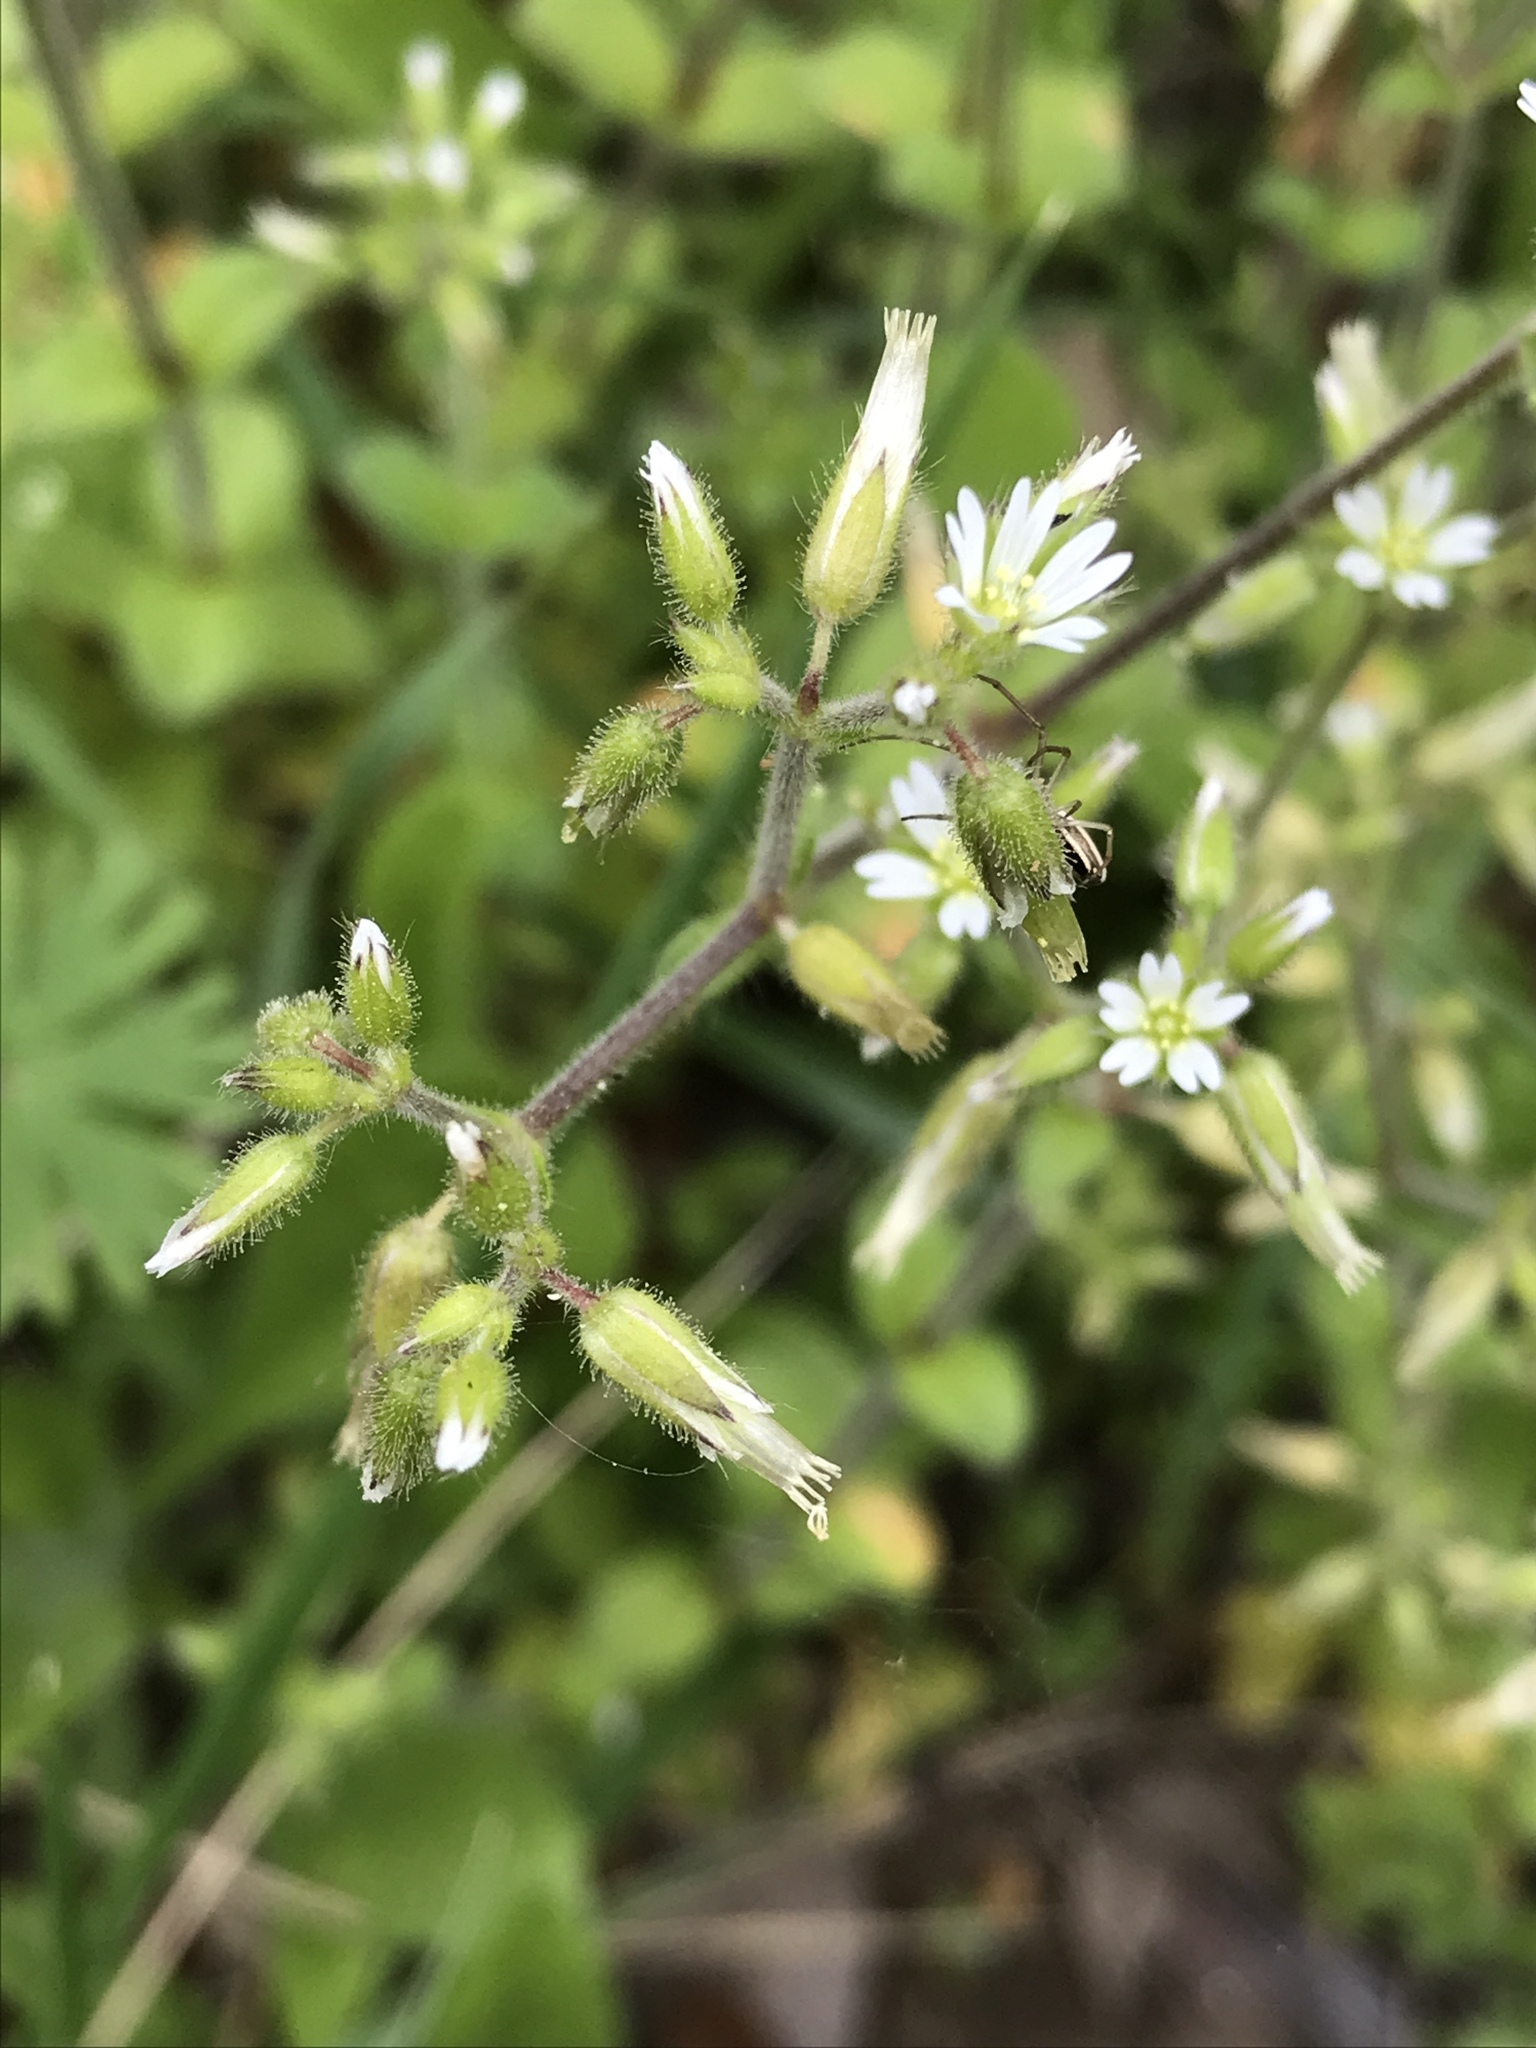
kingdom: Plantae
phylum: Tracheophyta
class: Magnoliopsida
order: Caryophyllales
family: Caryophyllaceae
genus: Cerastium
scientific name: Cerastium glomeratum
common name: Sticky chickweed
